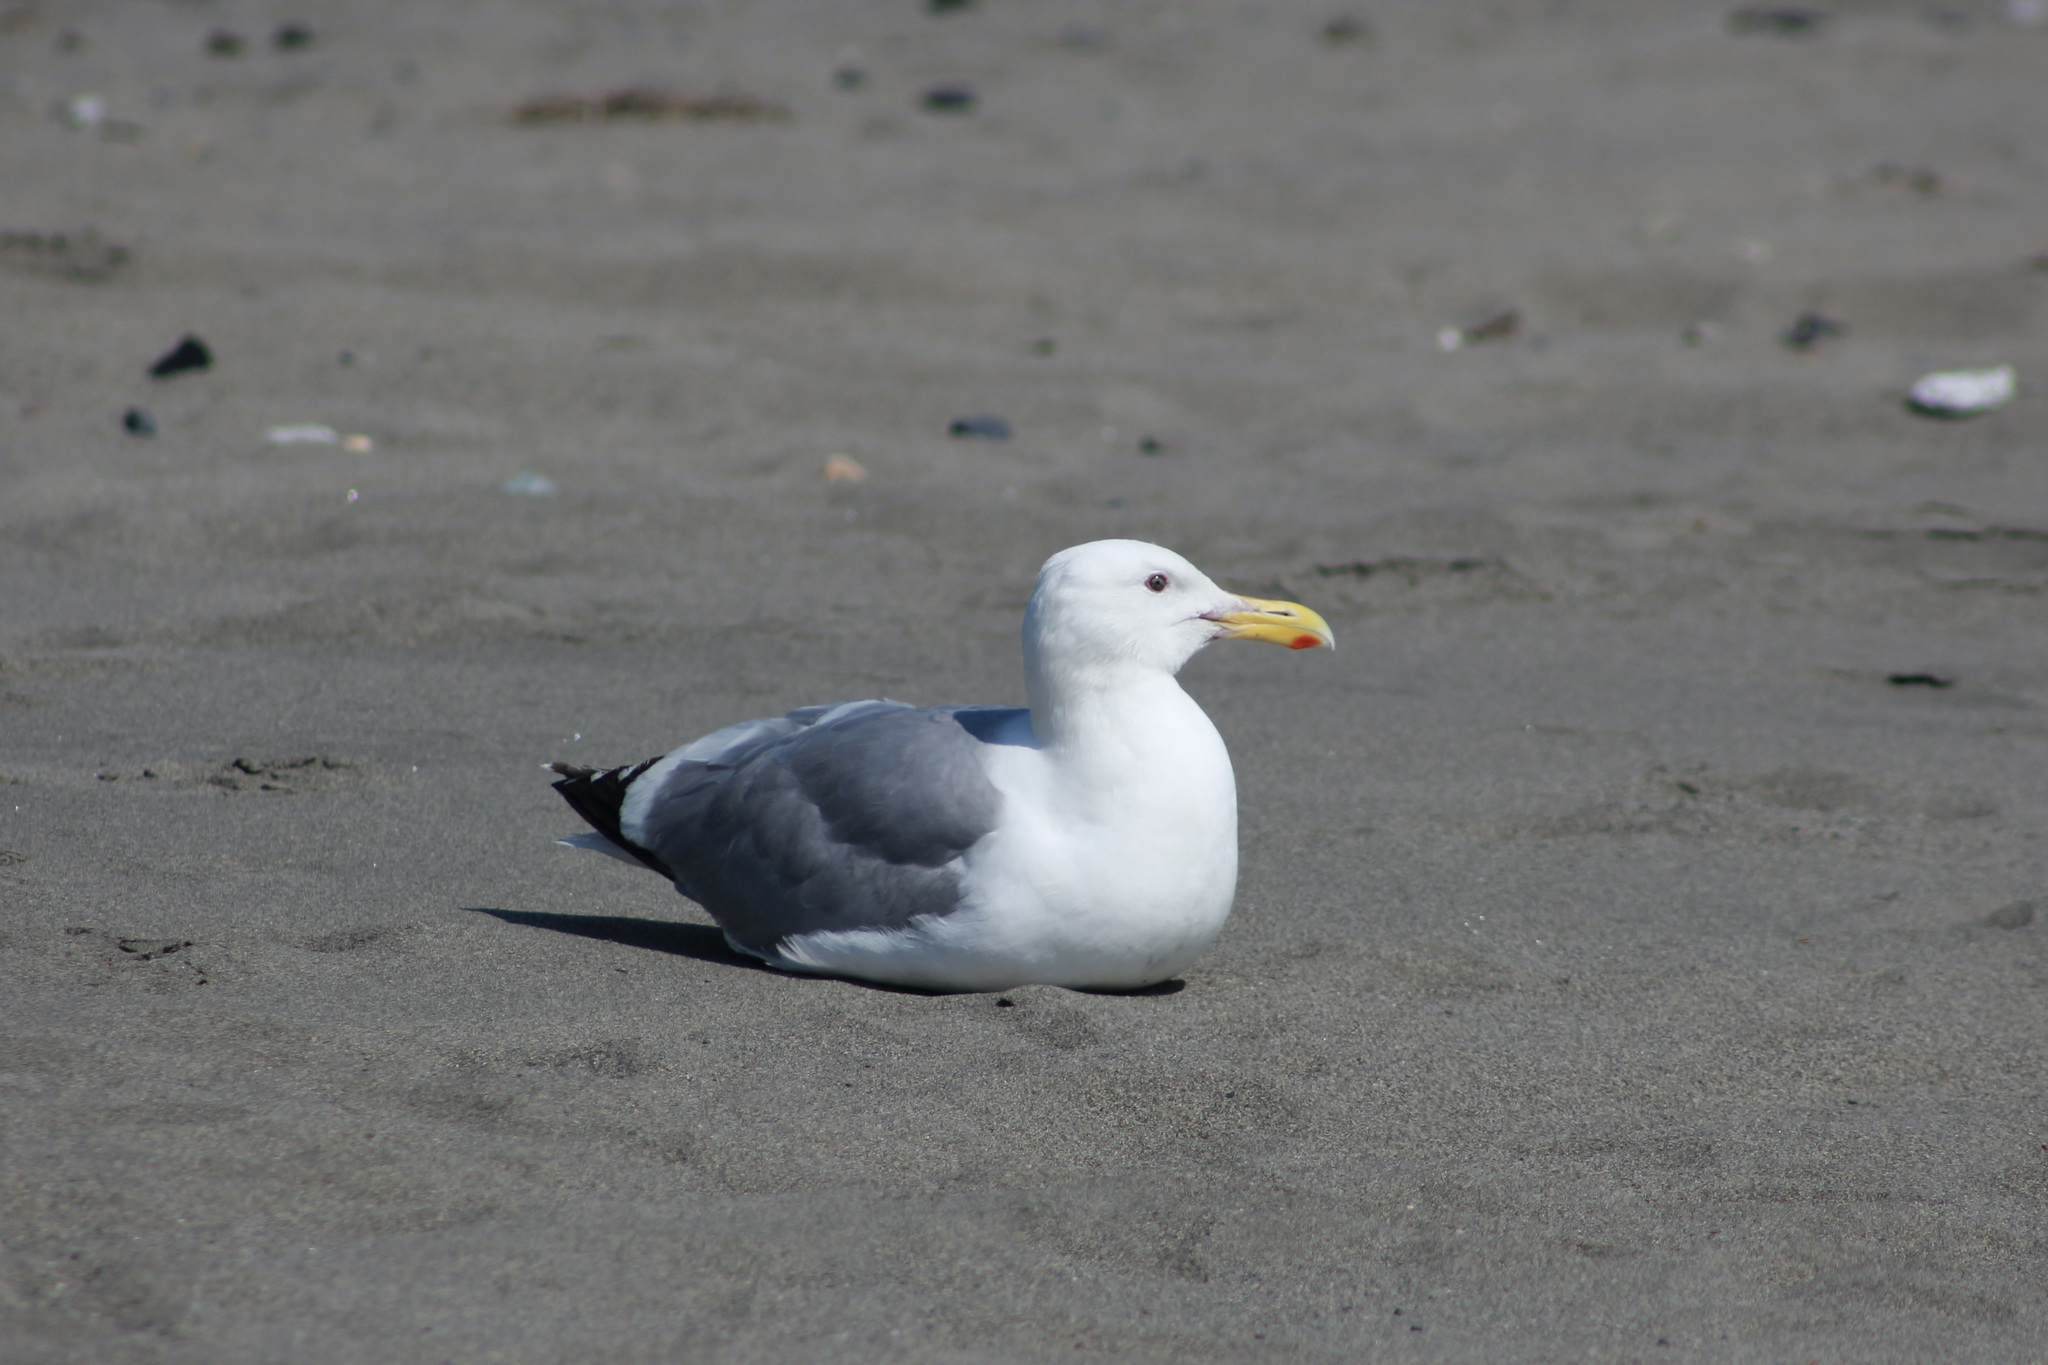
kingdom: Animalia
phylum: Chordata
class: Aves
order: Charadriiformes
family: Laridae
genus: Larus
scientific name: Larus
